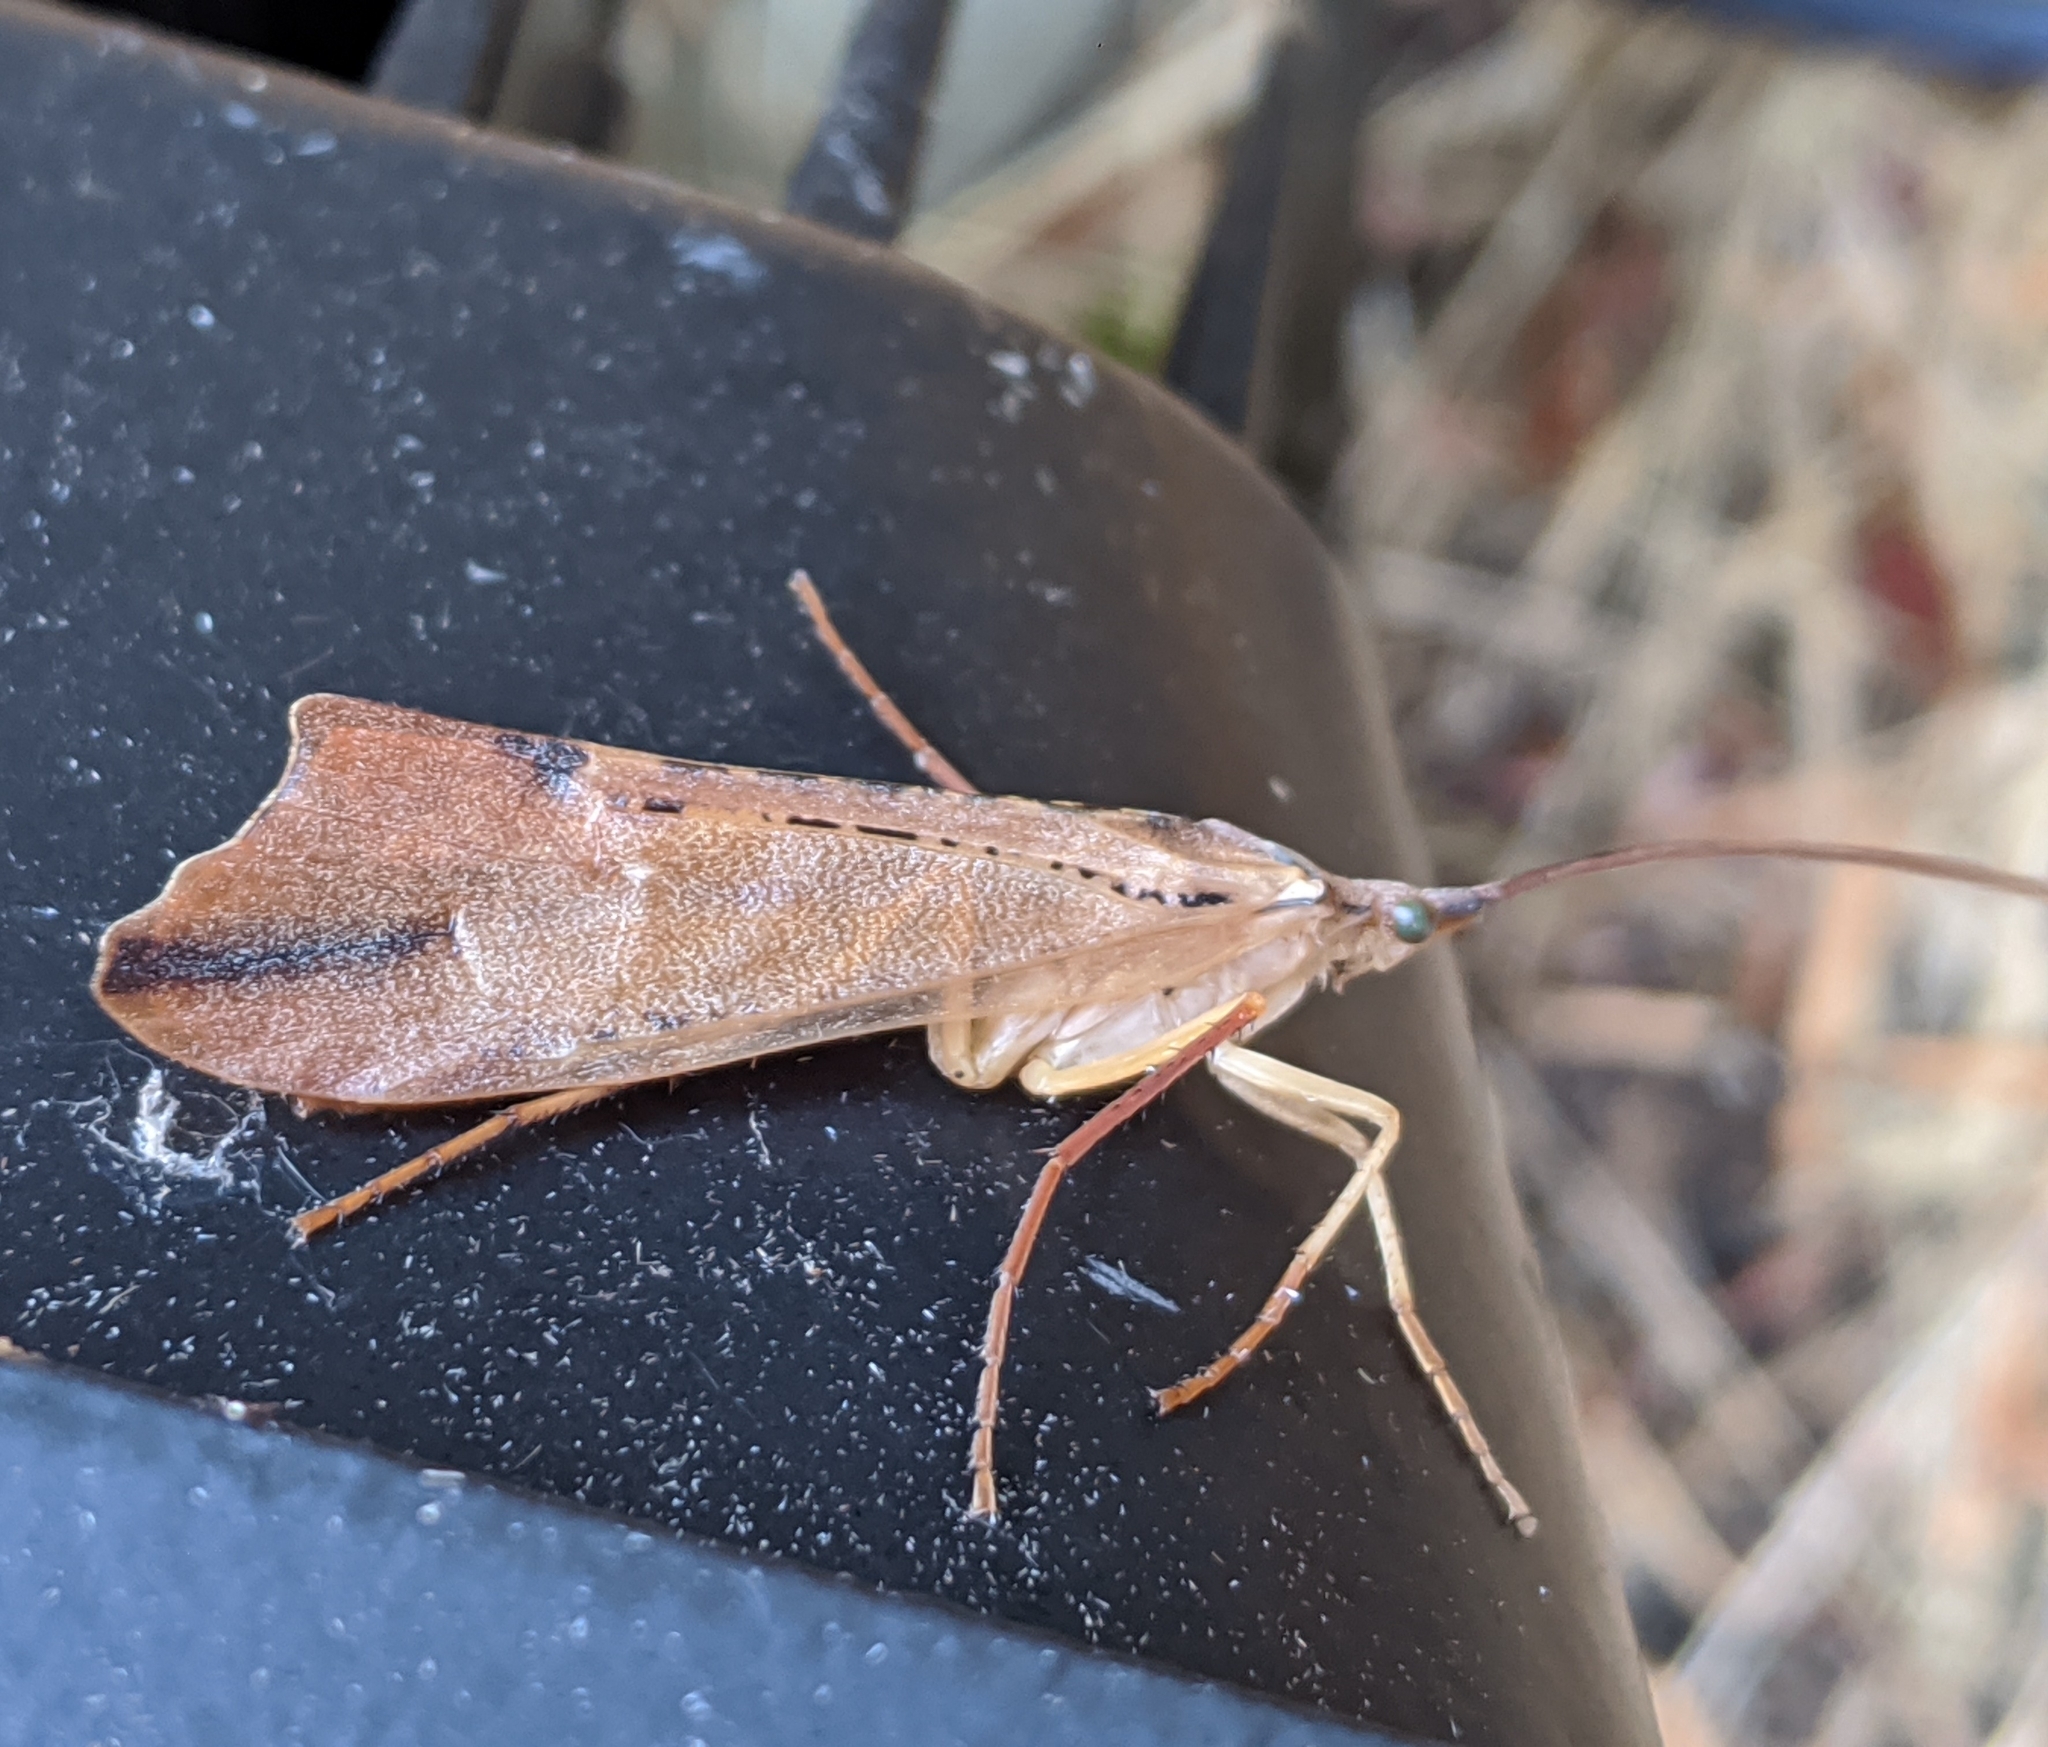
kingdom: Animalia
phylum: Arthropoda
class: Insecta
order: Trichoptera
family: Limnephilidae
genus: Nemotaulius
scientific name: Nemotaulius hostilis
